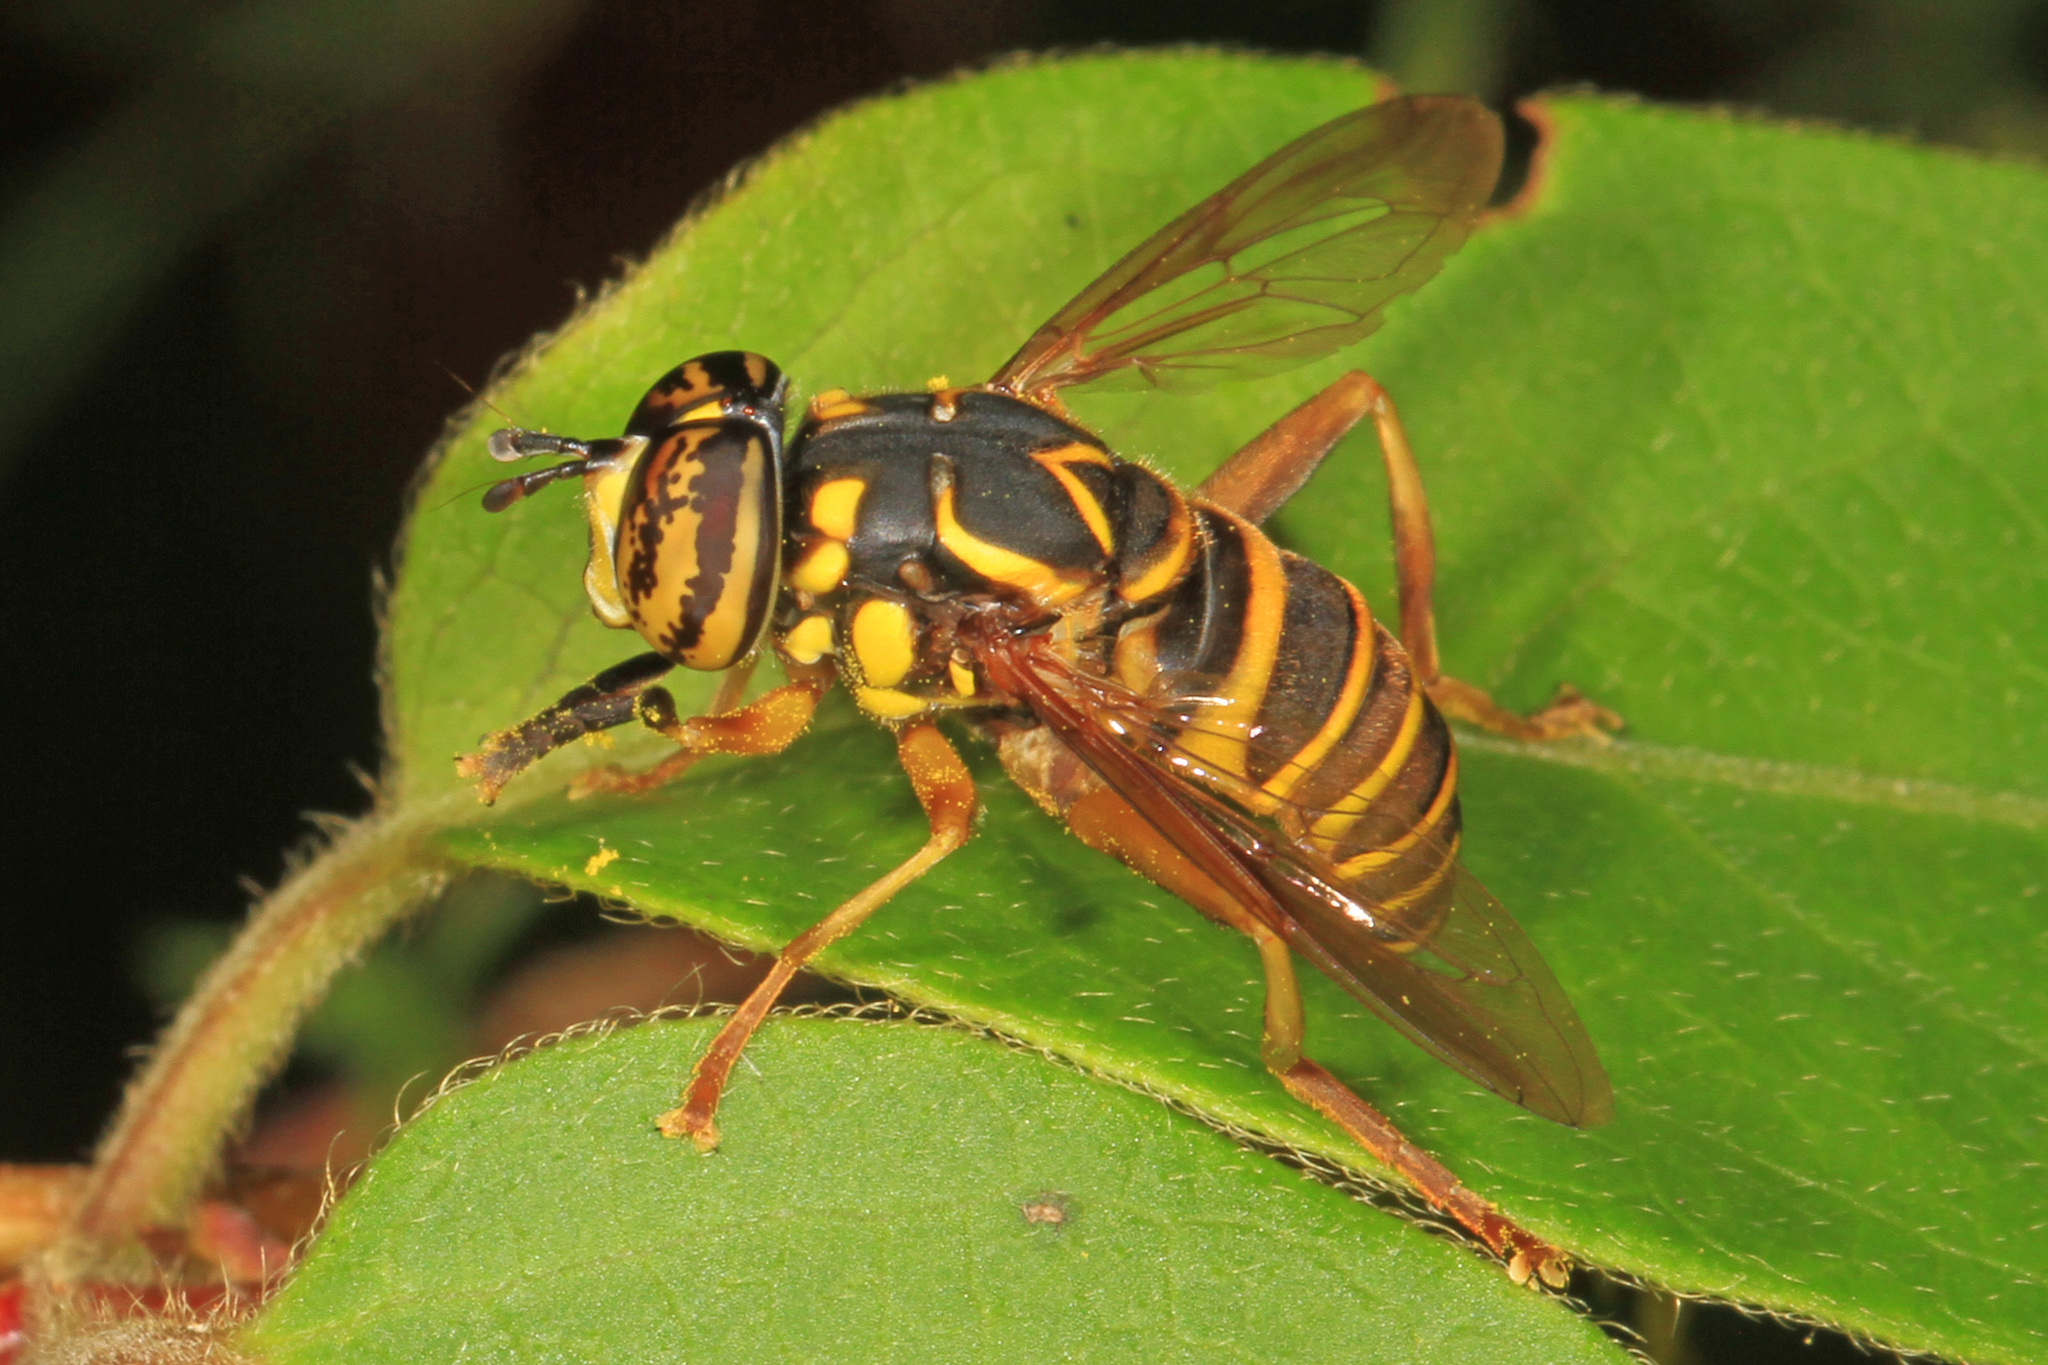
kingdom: Animalia
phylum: Arthropoda
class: Insecta
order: Diptera
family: Syrphidae
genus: Spilomyia
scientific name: Spilomyia longicornis
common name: Eastern hornet fly
